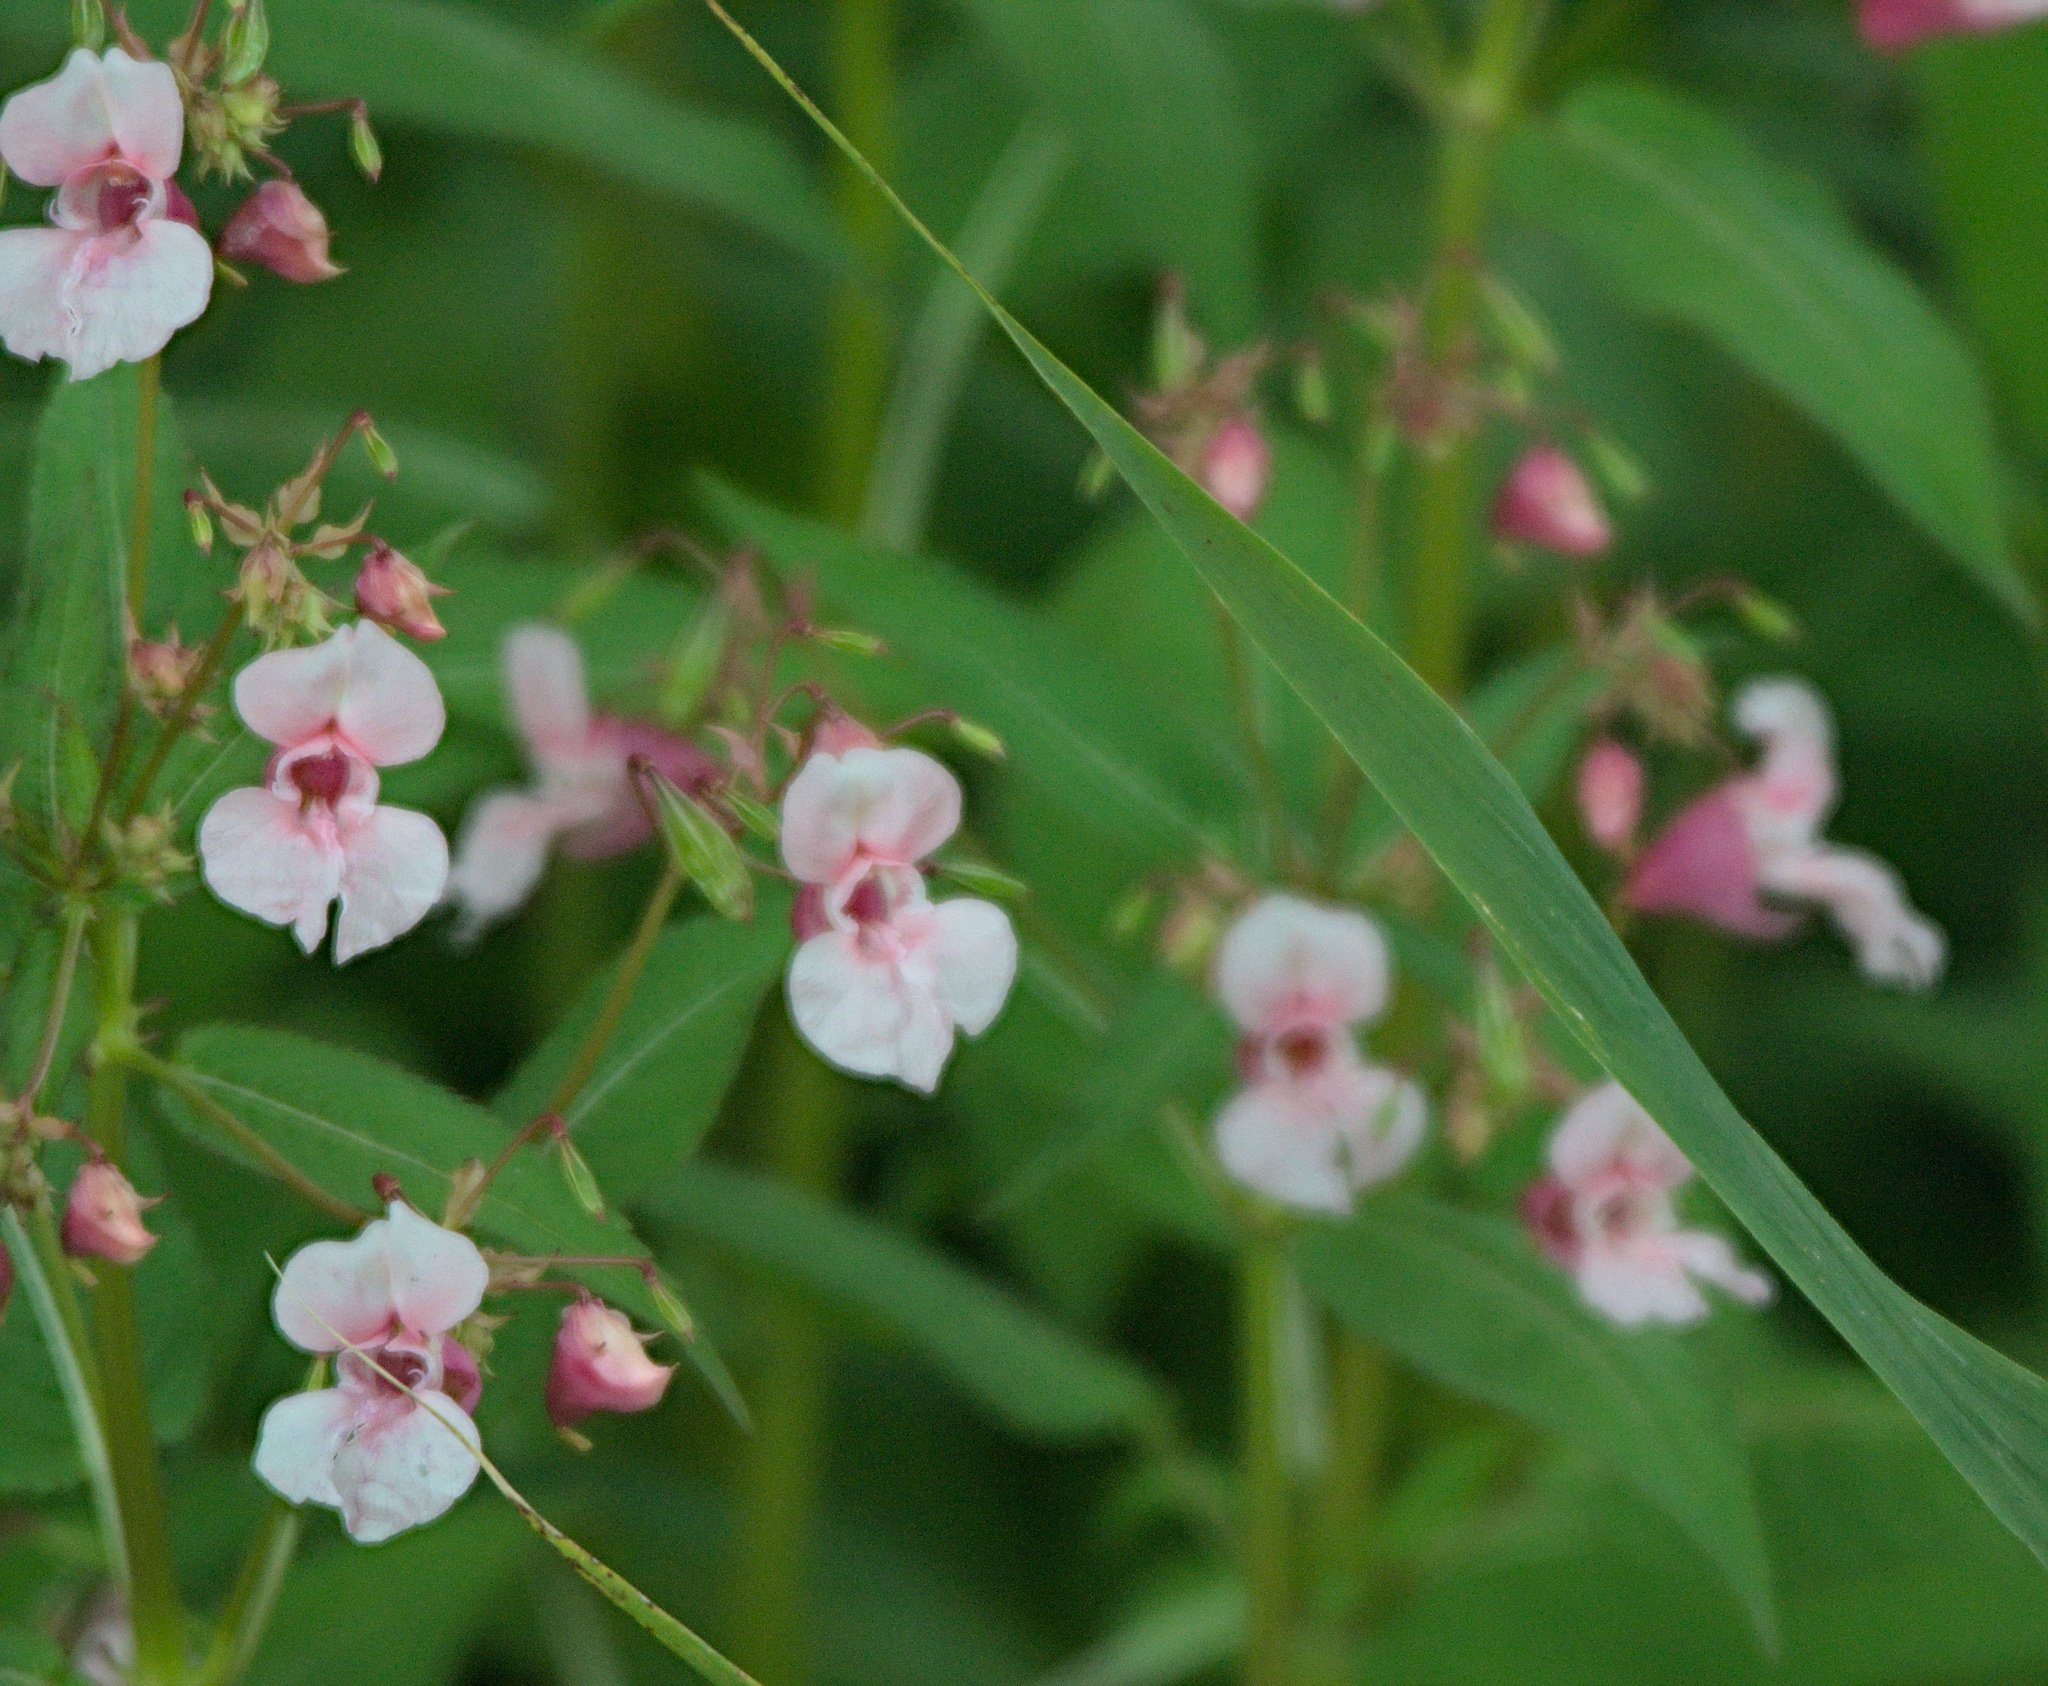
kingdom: Plantae
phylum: Tracheophyta
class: Magnoliopsida
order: Ericales
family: Balsaminaceae
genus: Impatiens
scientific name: Impatiens glandulifera
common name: Himalayan balsam
